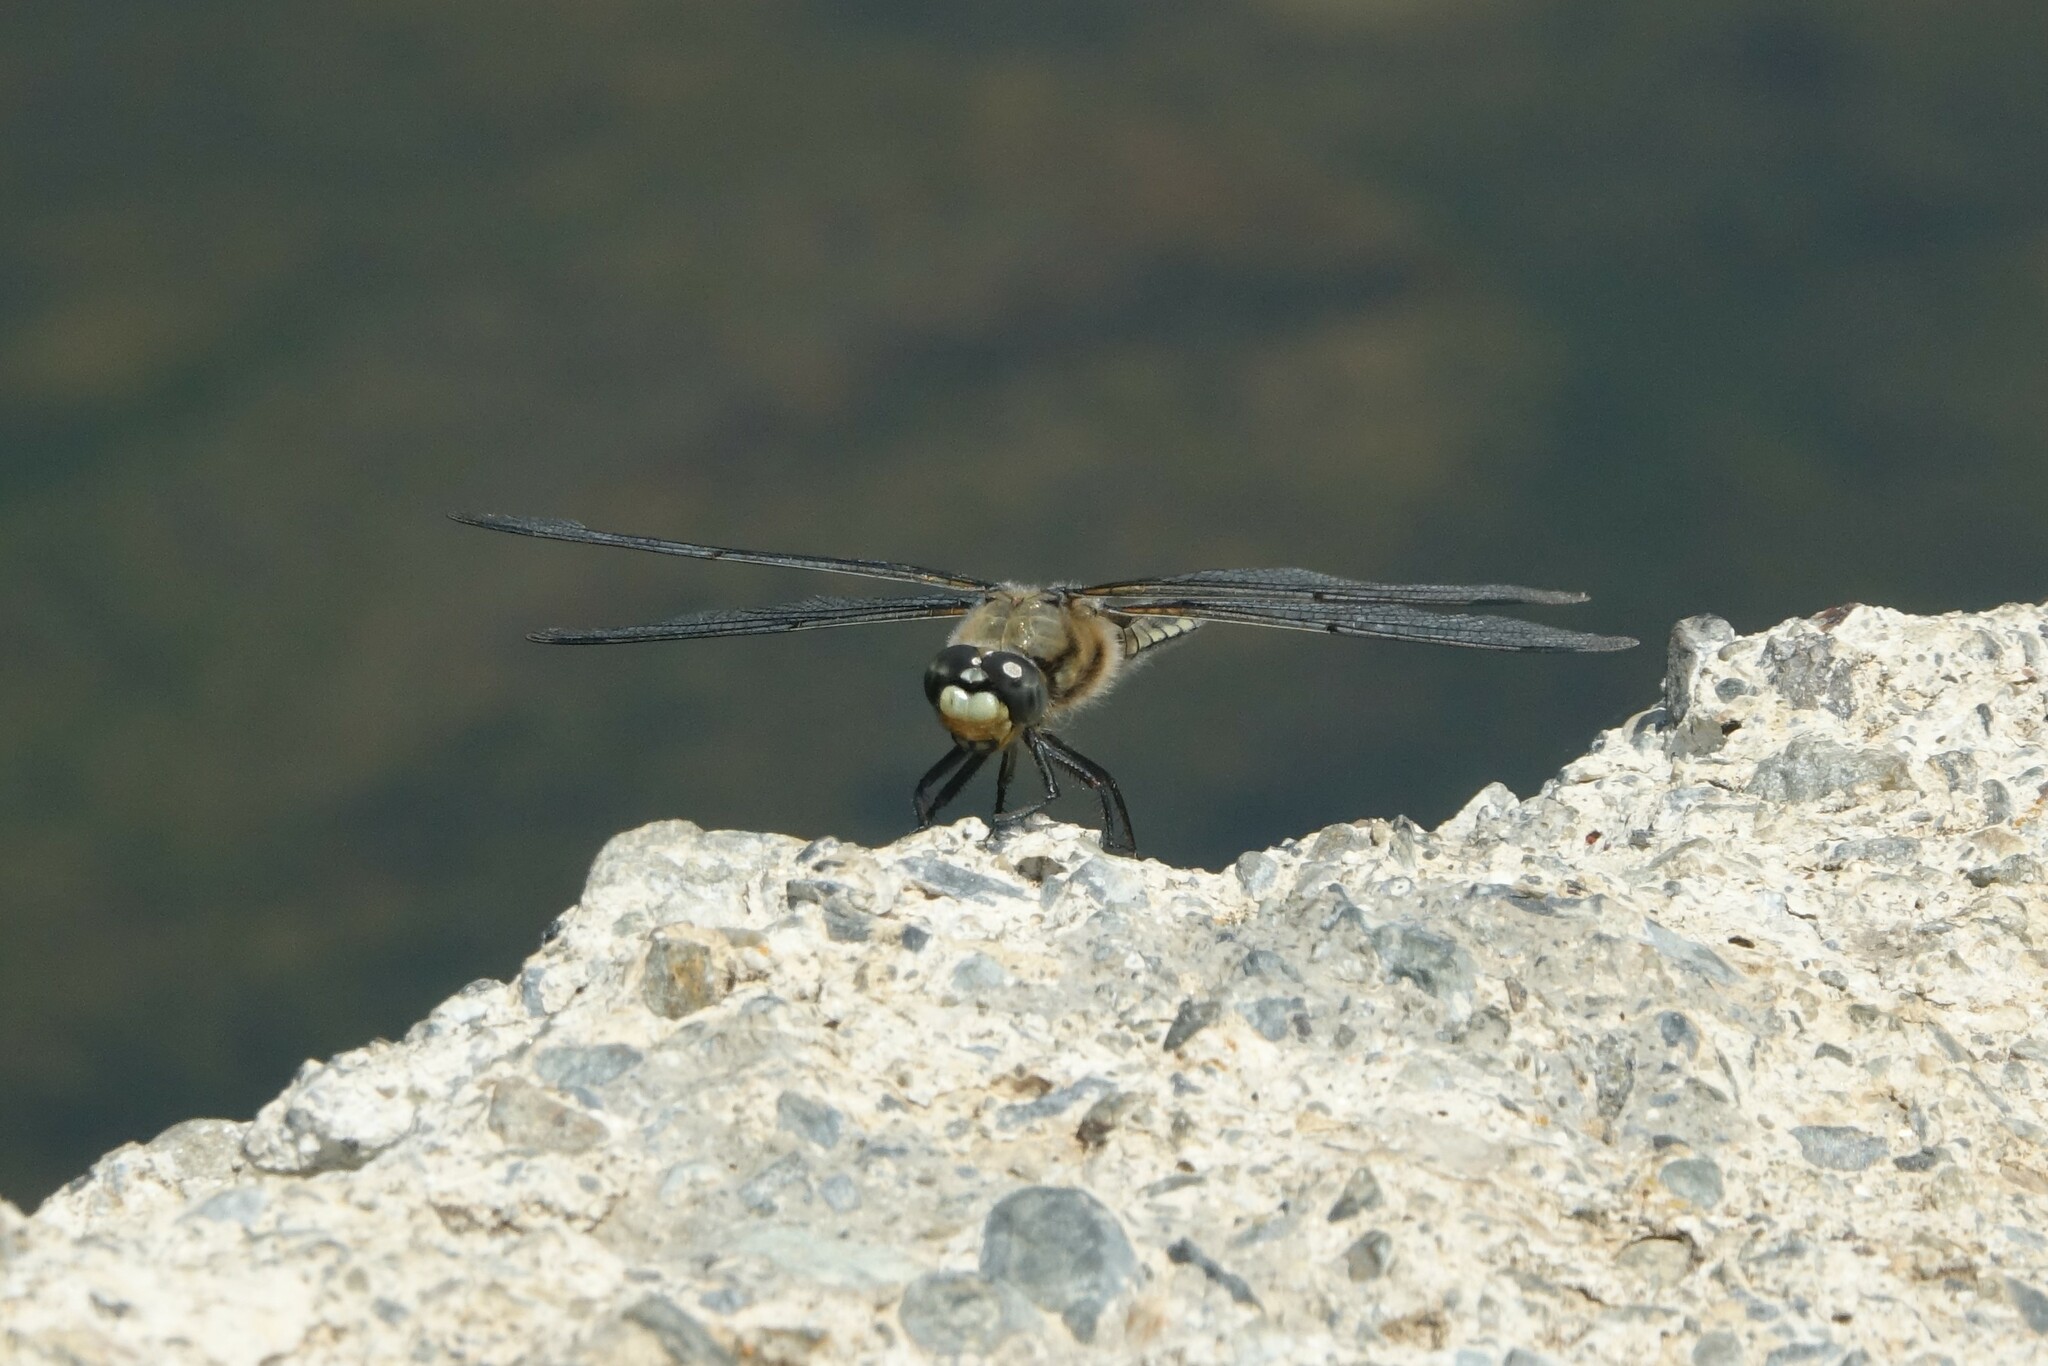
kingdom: Animalia
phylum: Arthropoda
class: Insecta
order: Odonata
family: Libellulidae
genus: Libellula
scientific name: Libellula quadrimaculata
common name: Four-spotted chaser
